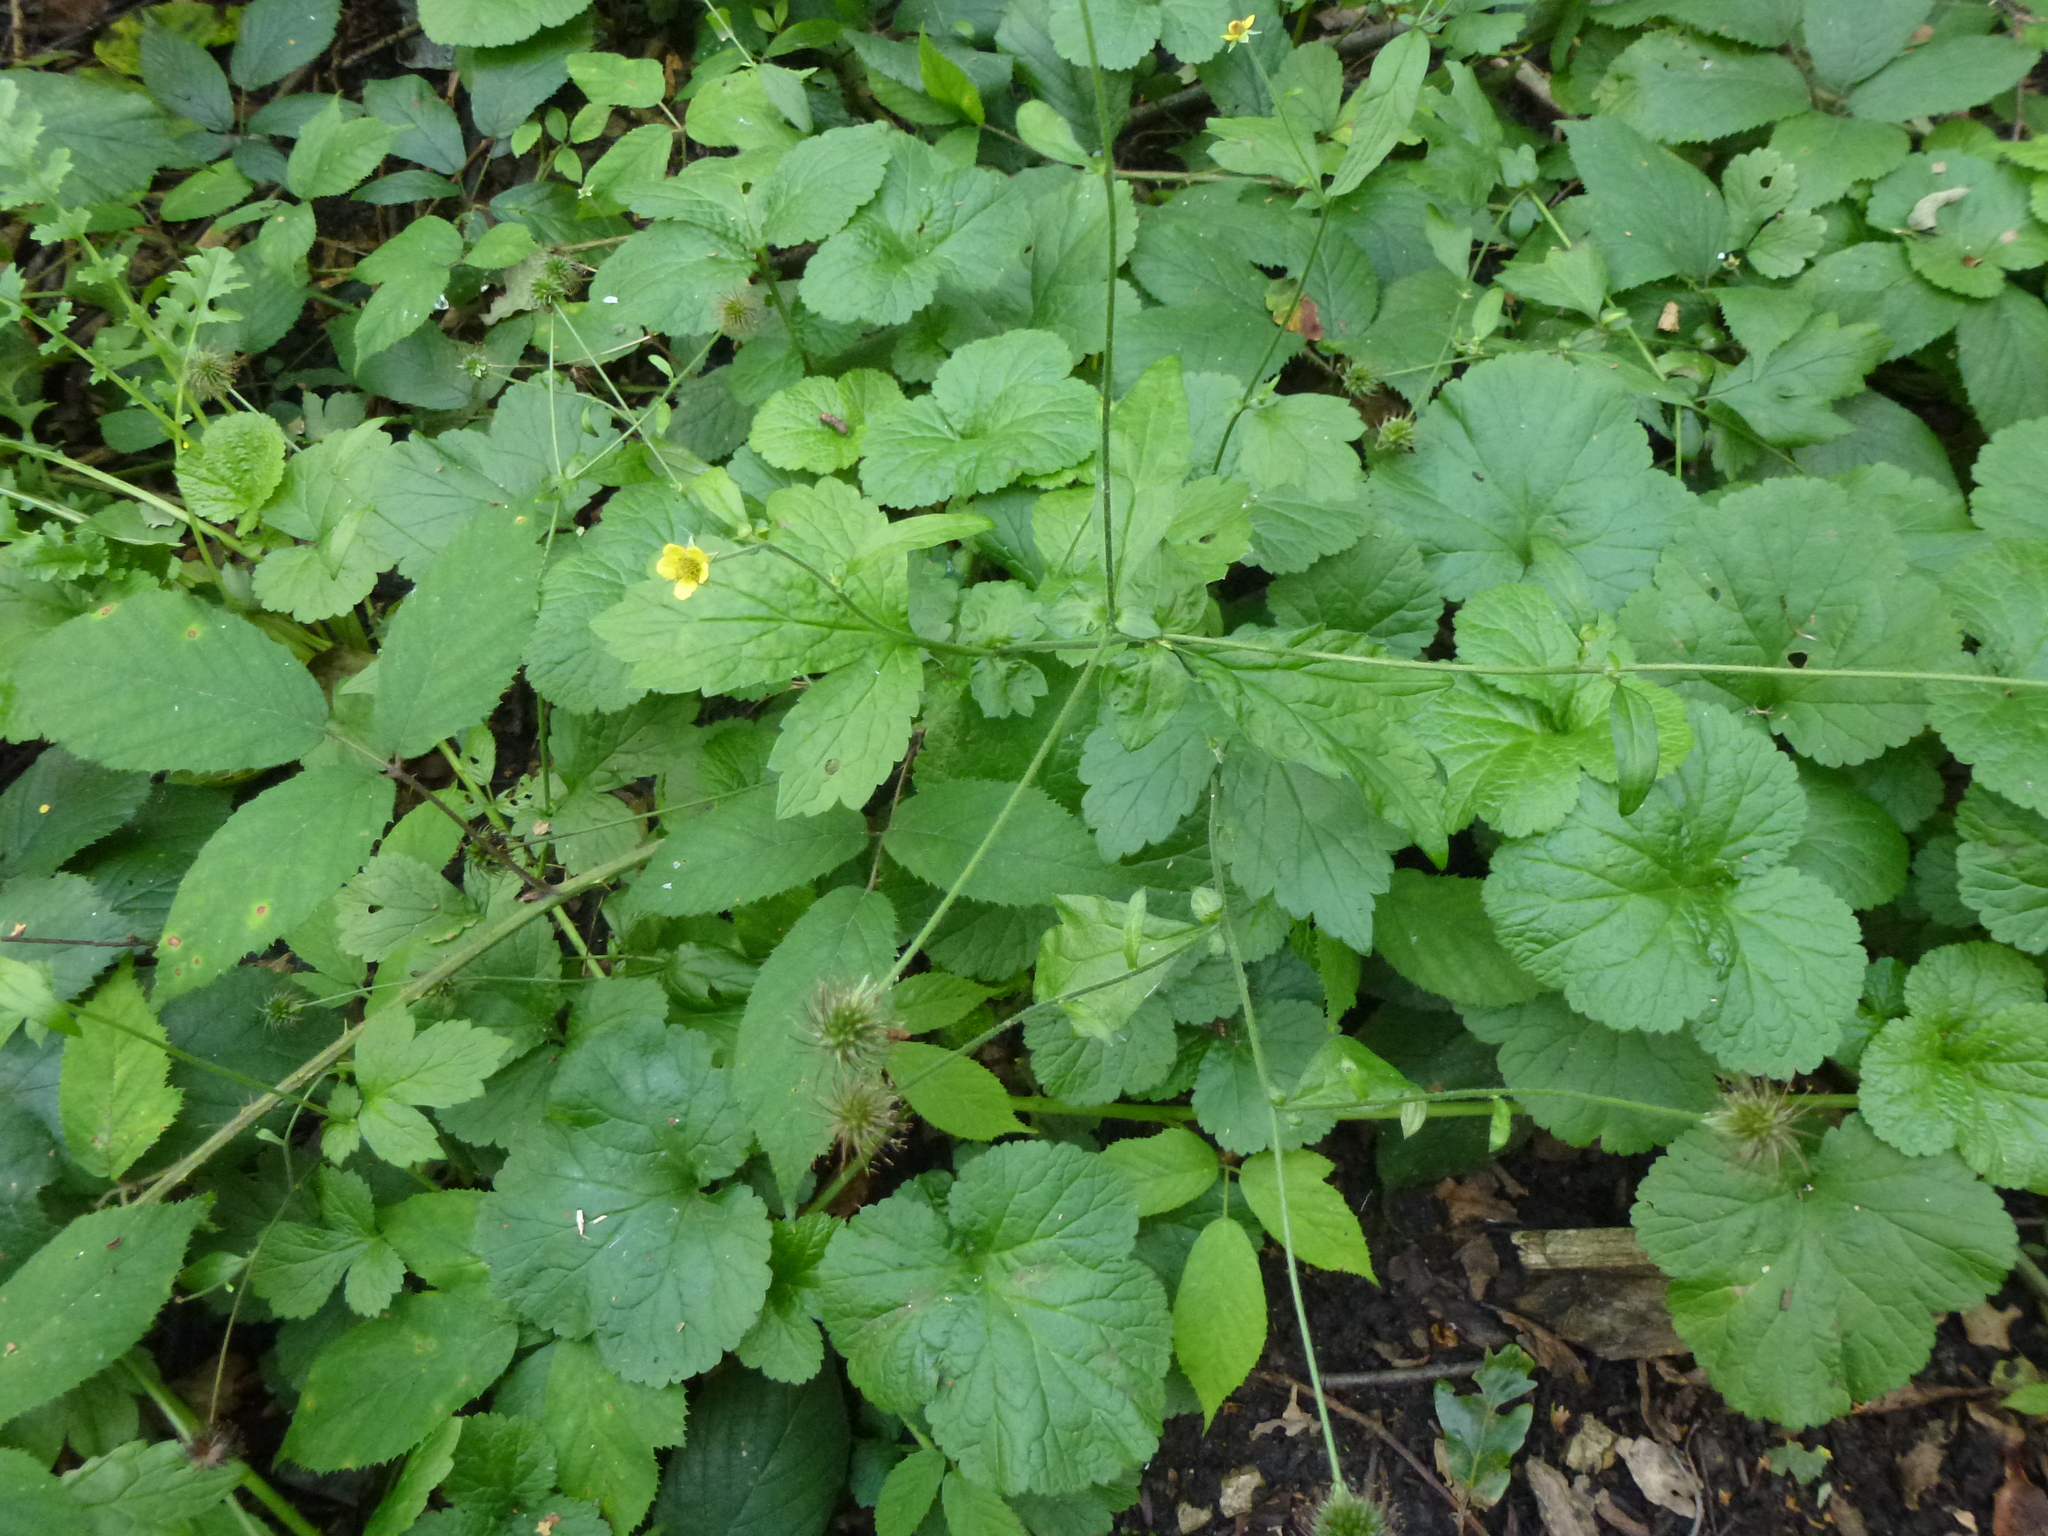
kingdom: Plantae
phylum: Tracheophyta
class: Magnoliopsida
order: Rosales
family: Rosaceae
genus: Geum
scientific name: Geum urbanum
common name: Wood avens
